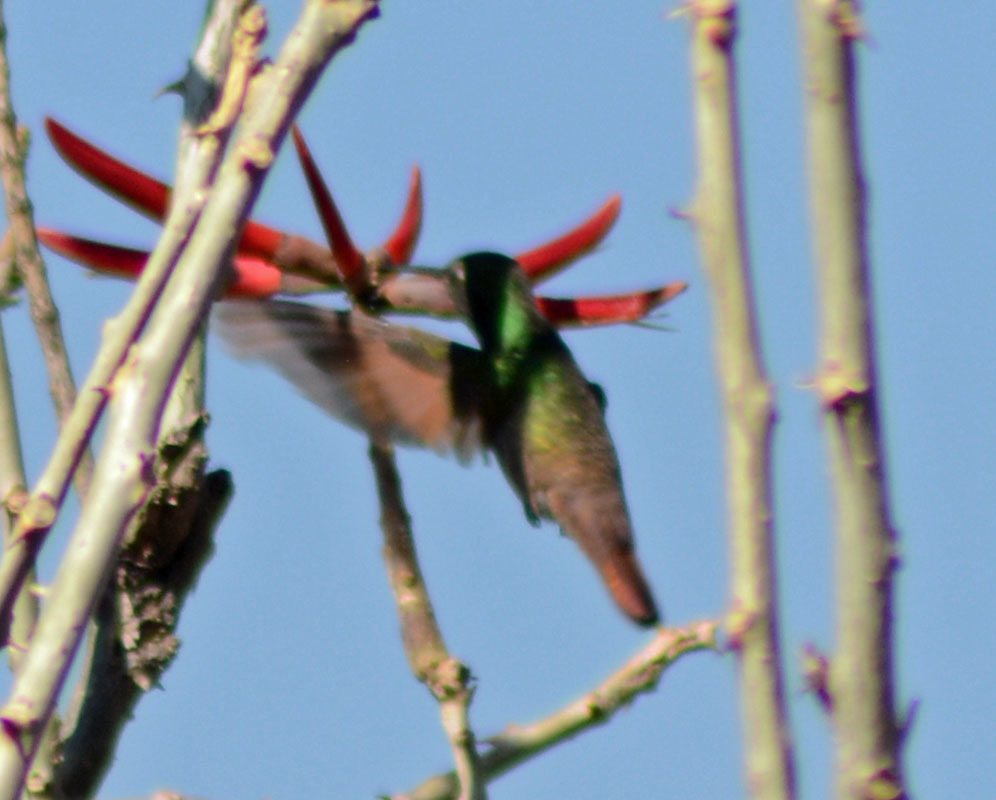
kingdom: Animalia
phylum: Chordata
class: Aves
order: Apodiformes
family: Trochilidae
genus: Saucerottia
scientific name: Saucerottia beryllina
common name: Berylline hummingbird
